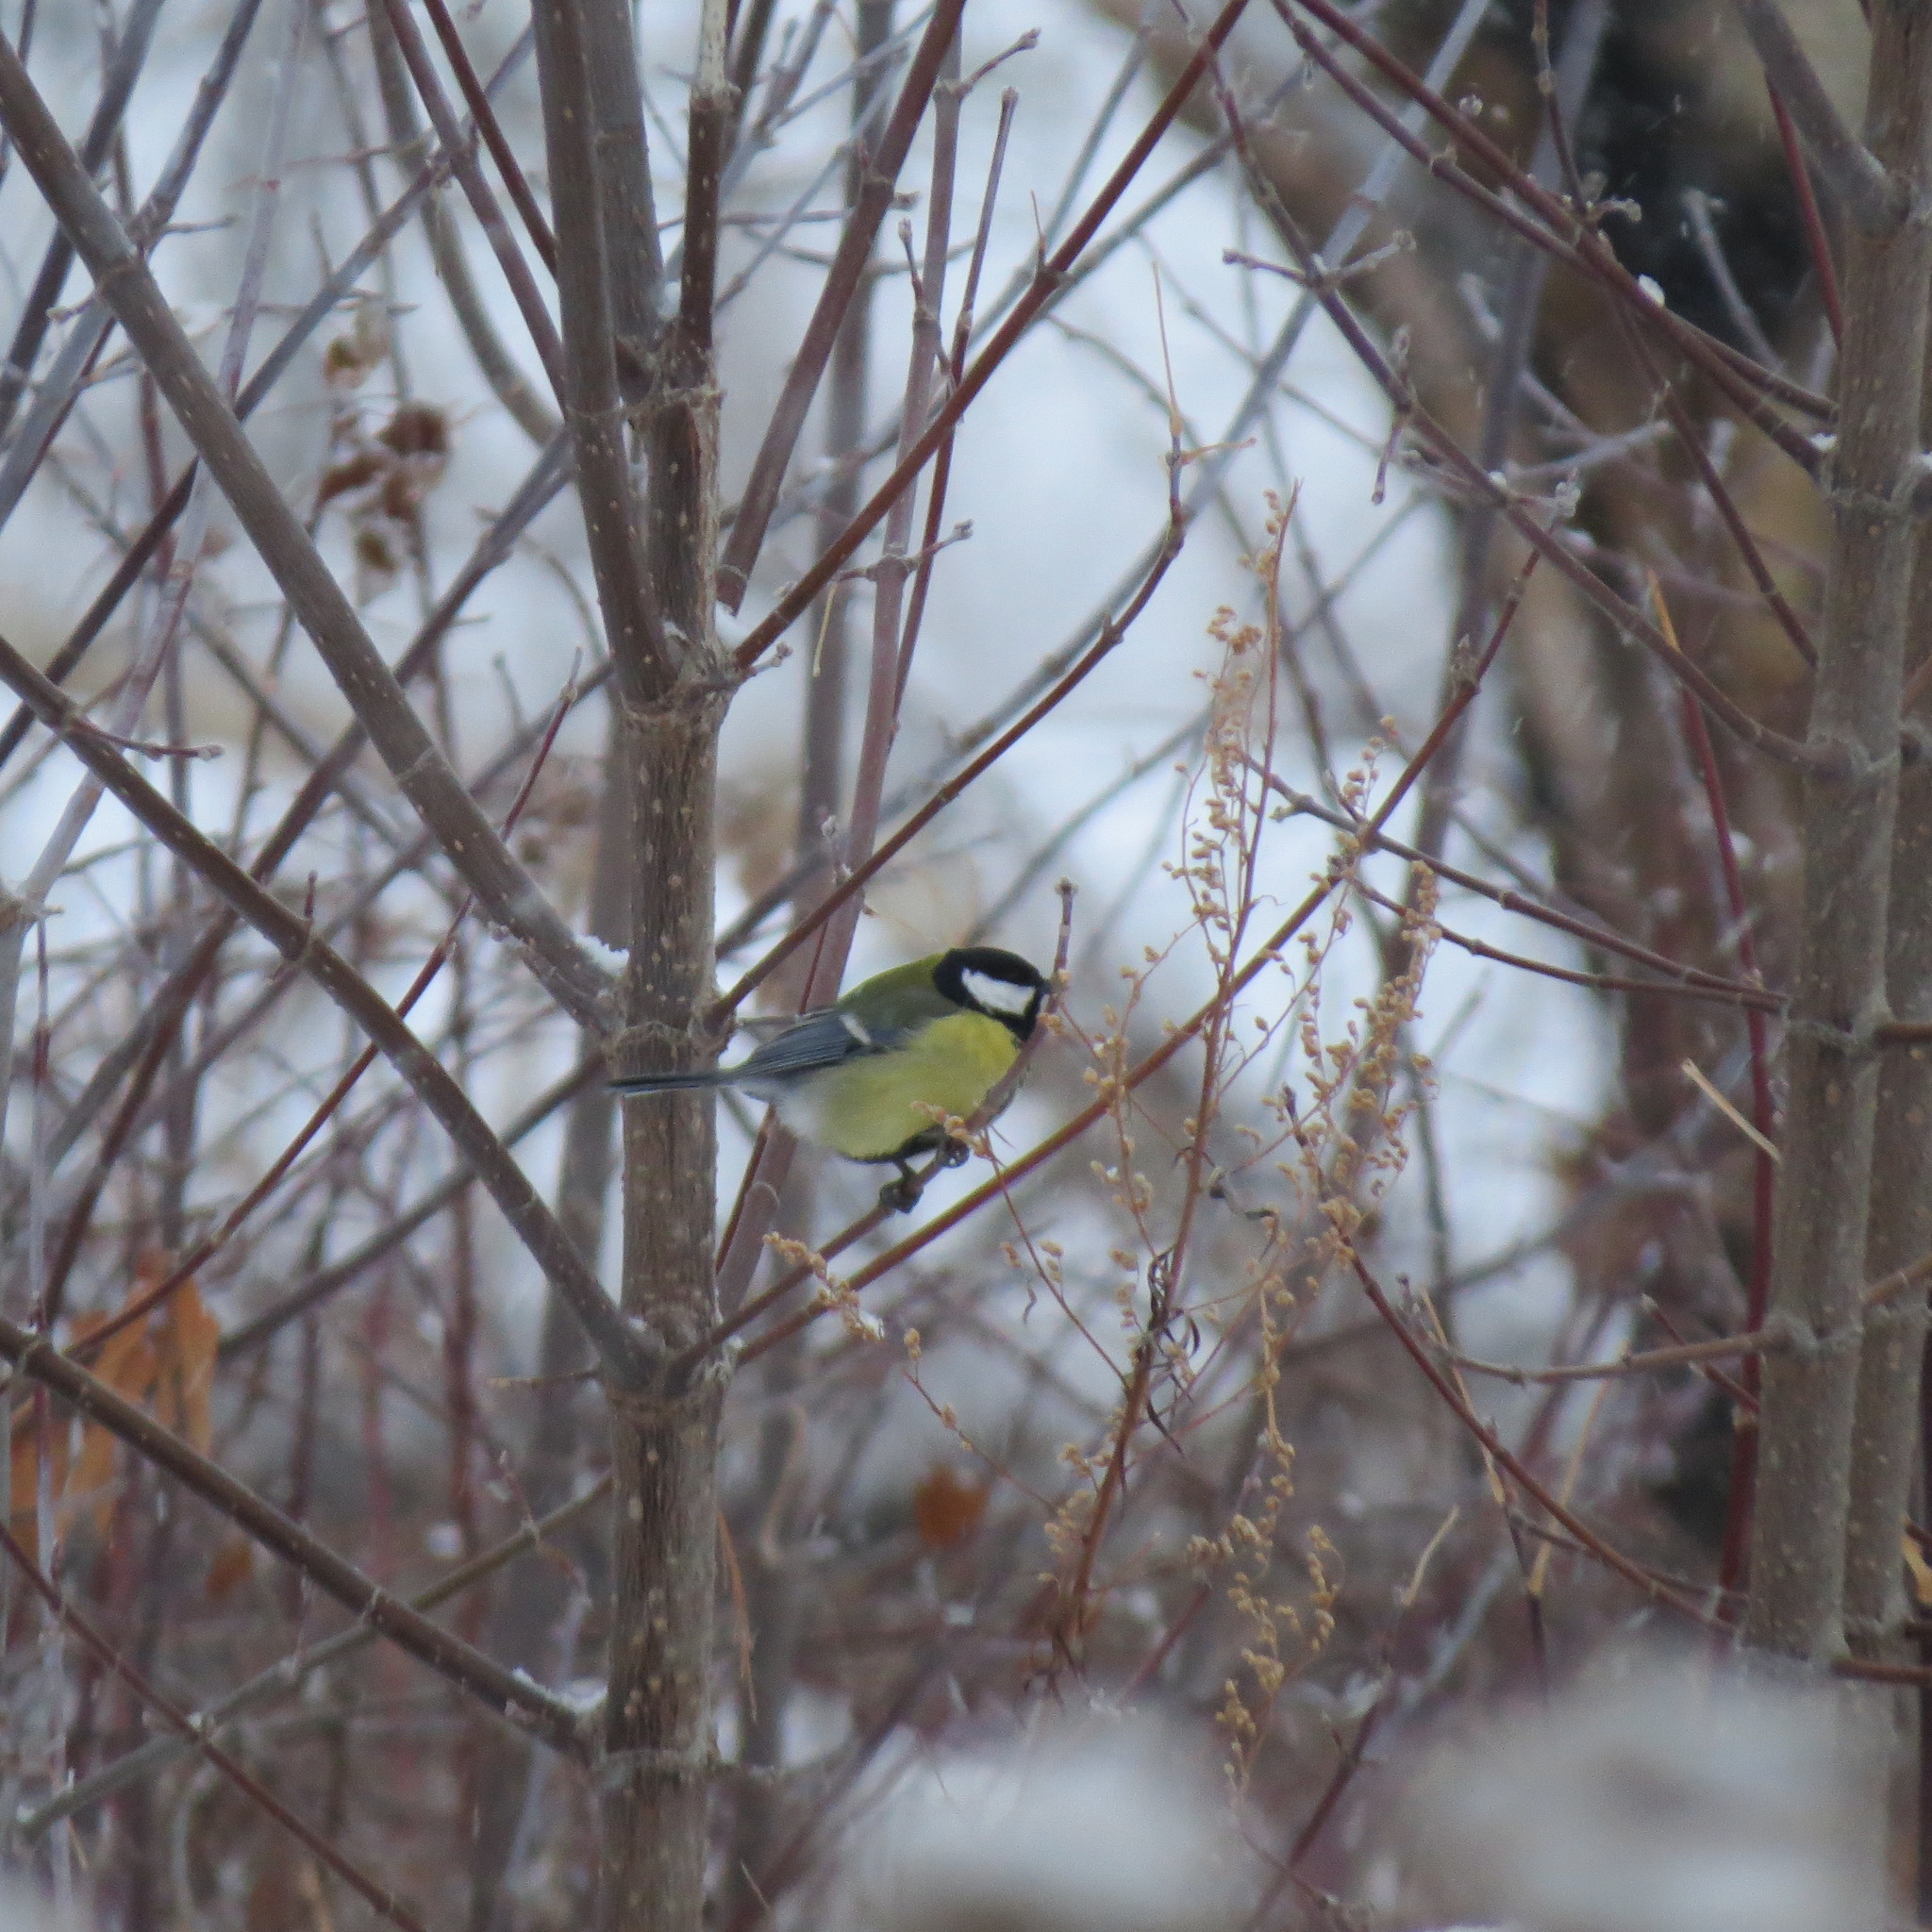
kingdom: Animalia
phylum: Chordata
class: Aves
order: Passeriformes
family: Paridae
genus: Parus
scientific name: Parus major
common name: Great tit
